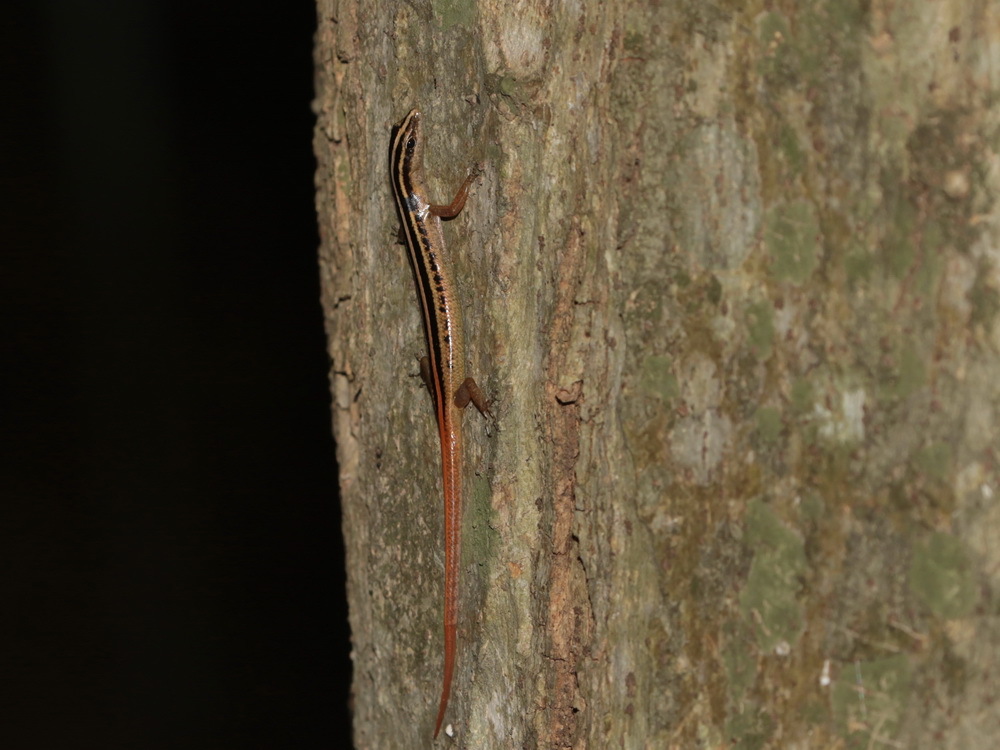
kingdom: Animalia
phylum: Chordata
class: Squamata
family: Scincidae
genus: Lipinia
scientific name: Lipinia microcerca
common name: Banded lipinia
